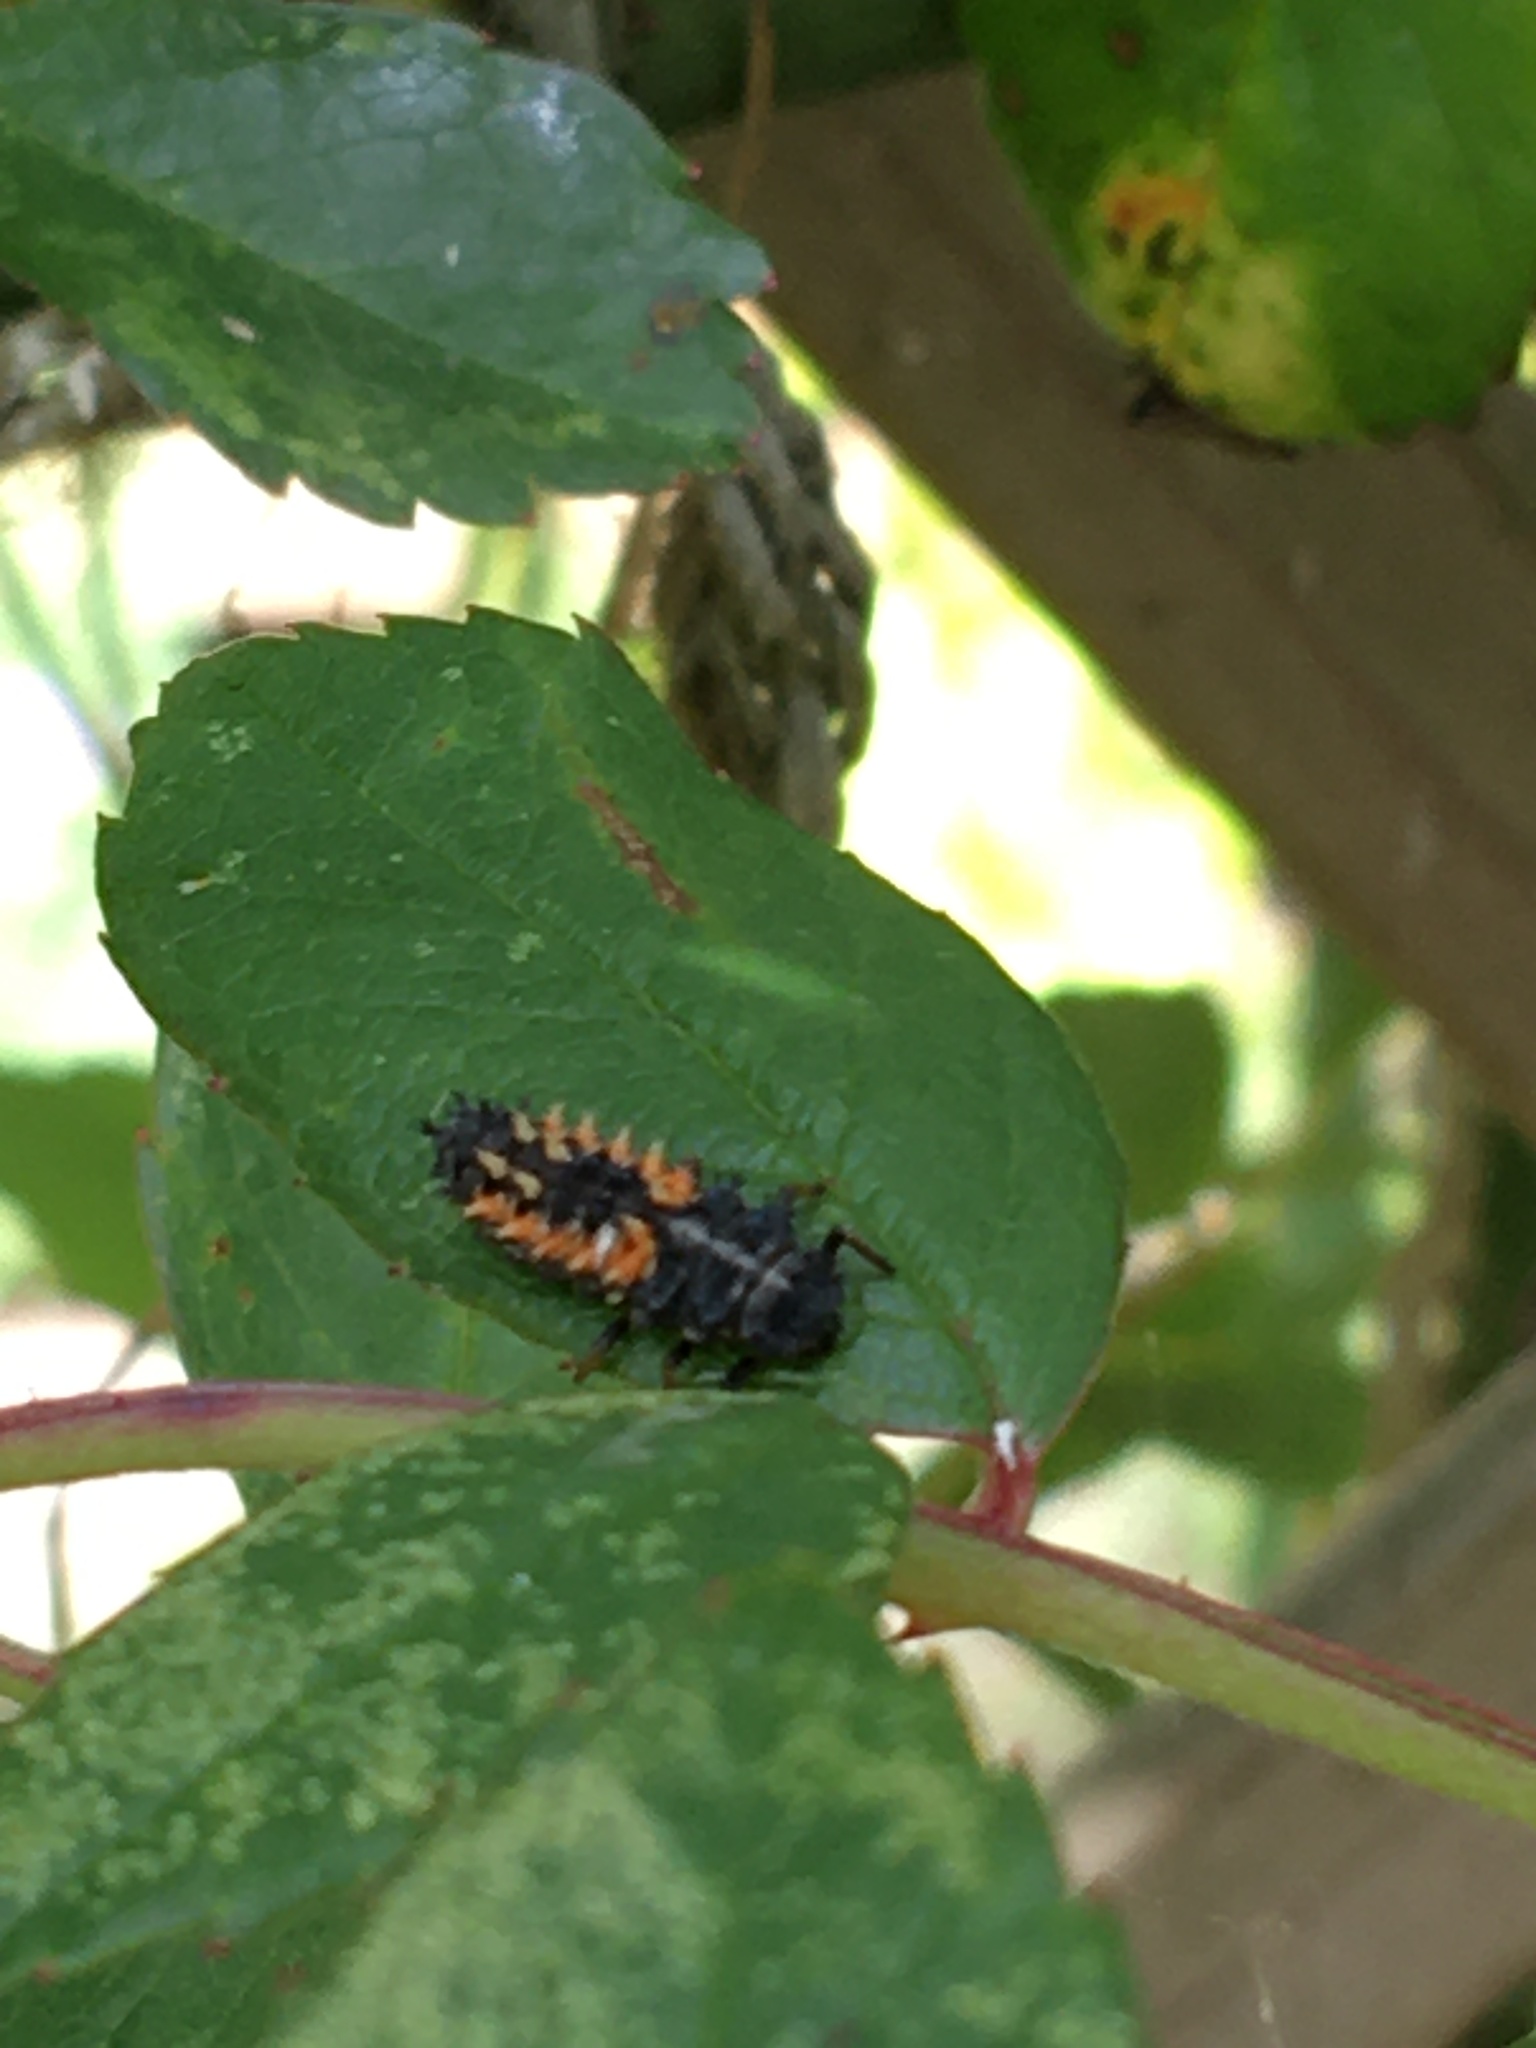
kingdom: Animalia
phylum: Arthropoda
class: Insecta
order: Coleoptera
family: Coccinellidae
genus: Harmonia
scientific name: Harmonia axyridis
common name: Harlequin ladybird
